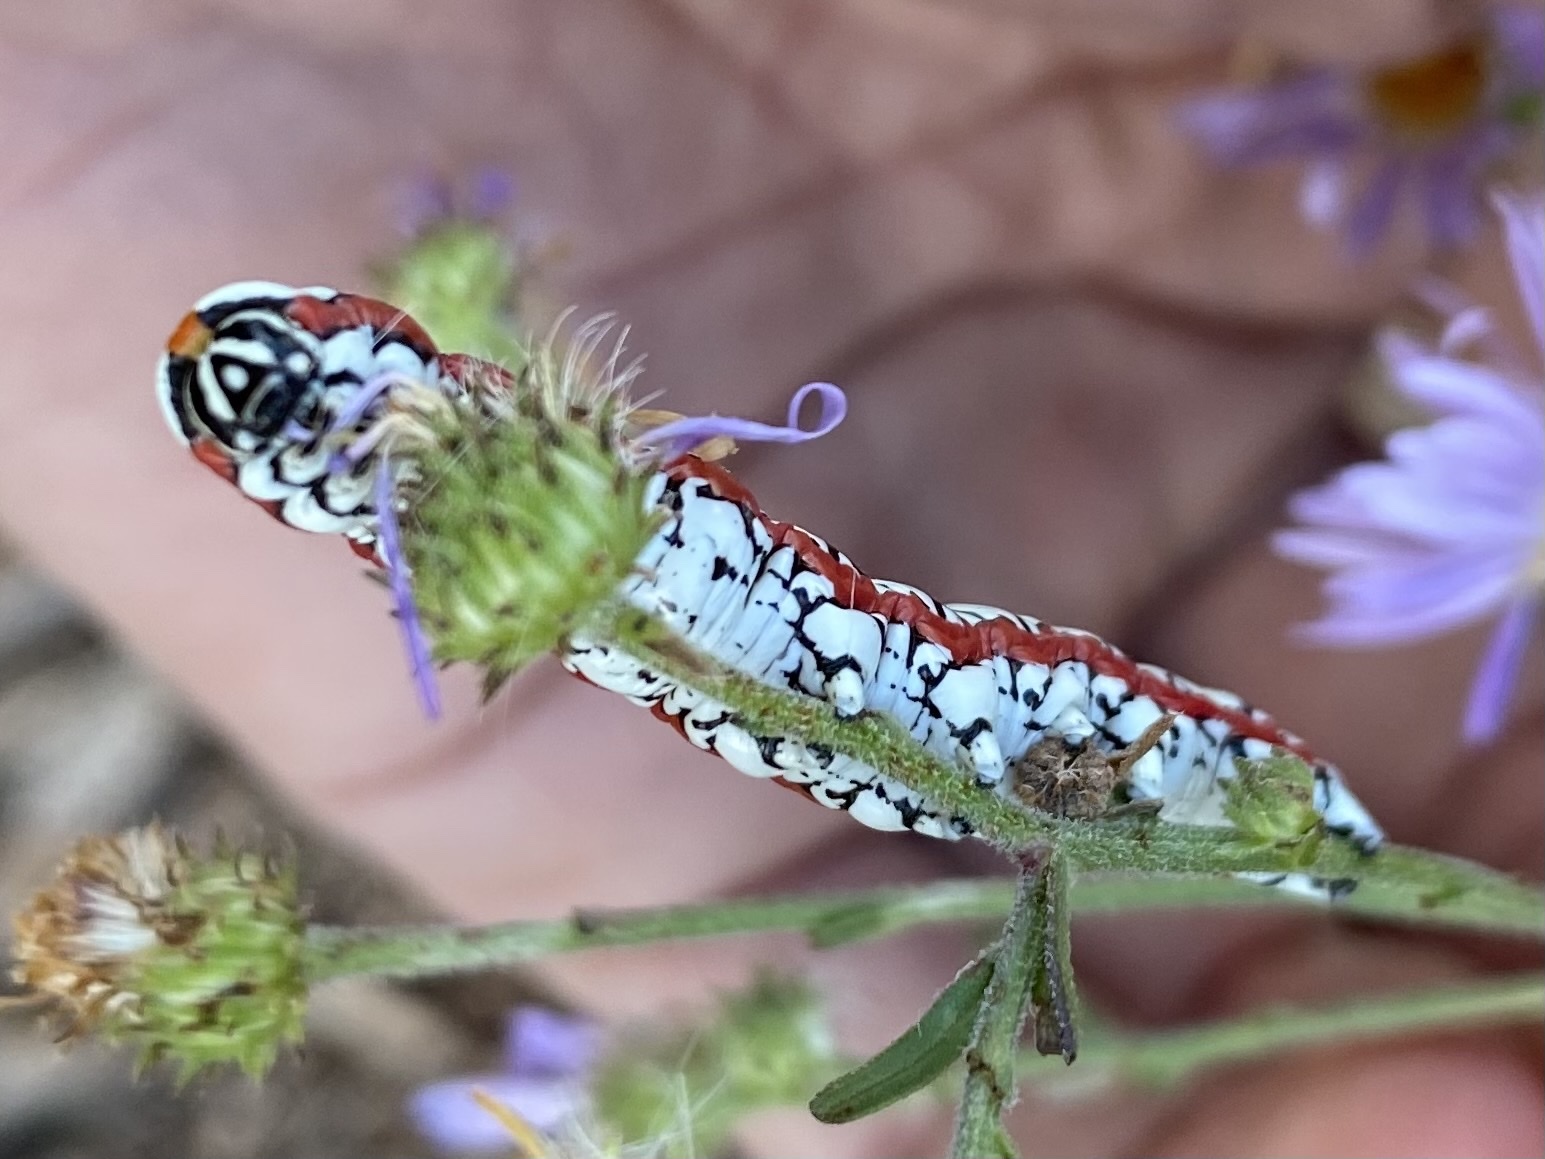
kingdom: Animalia
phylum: Arthropoda
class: Insecta
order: Lepidoptera
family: Noctuidae
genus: Cucullia
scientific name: Cucullia dorsalis
